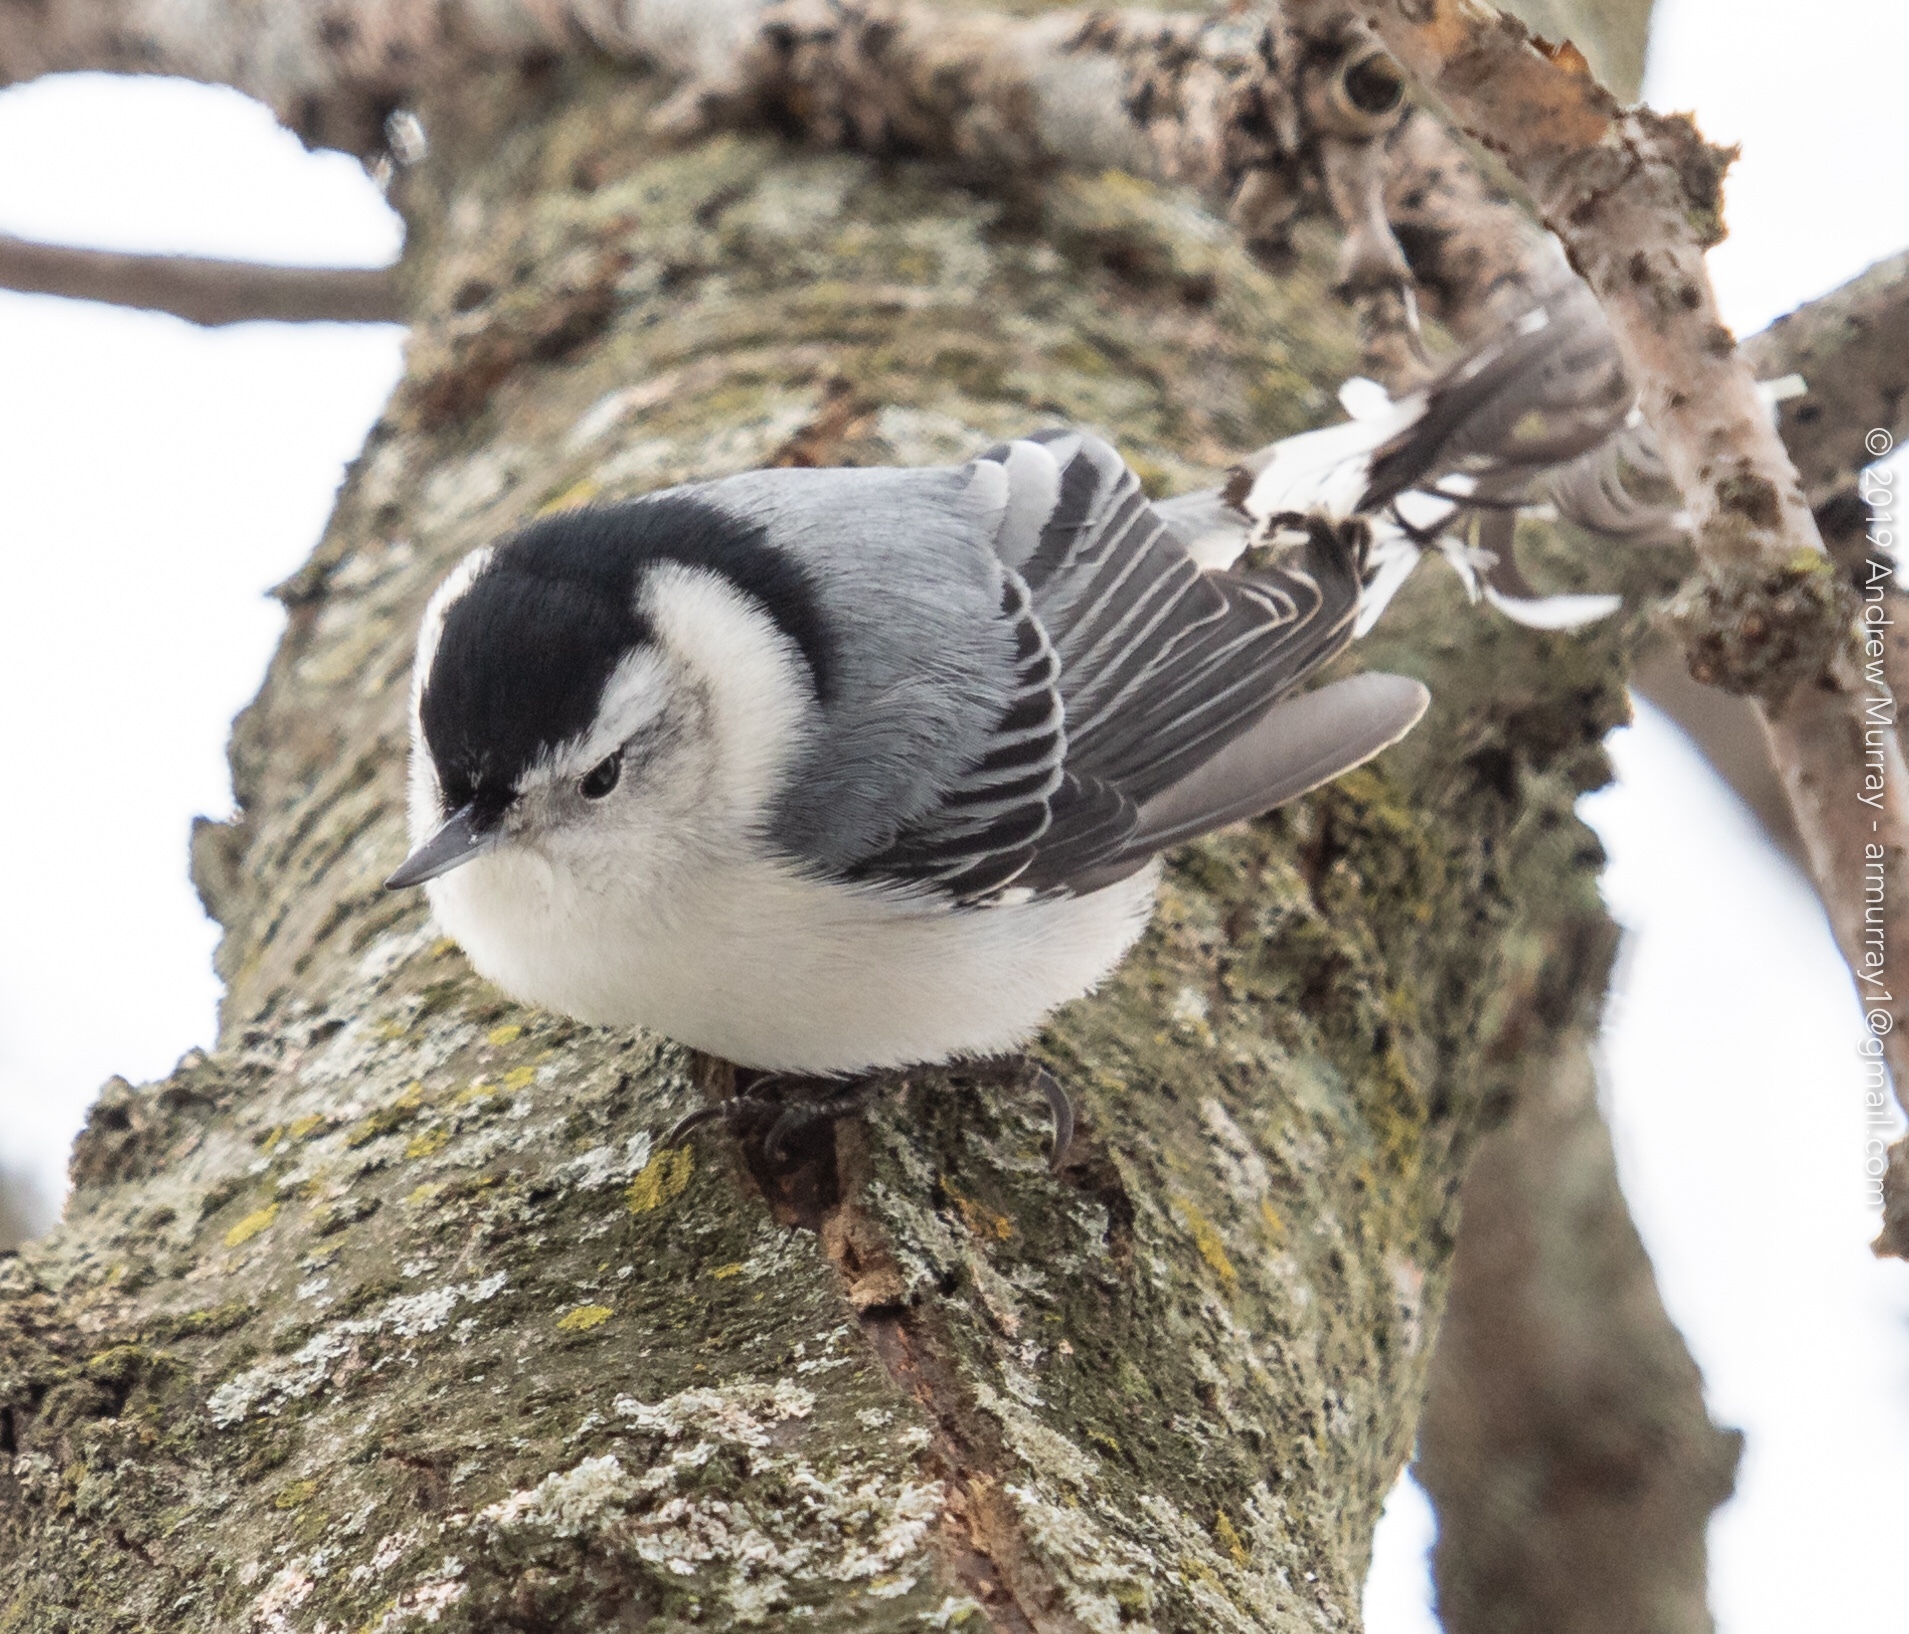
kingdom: Animalia
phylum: Chordata
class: Aves
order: Passeriformes
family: Sittidae
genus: Sitta
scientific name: Sitta carolinensis
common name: White-breasted nuthatch
